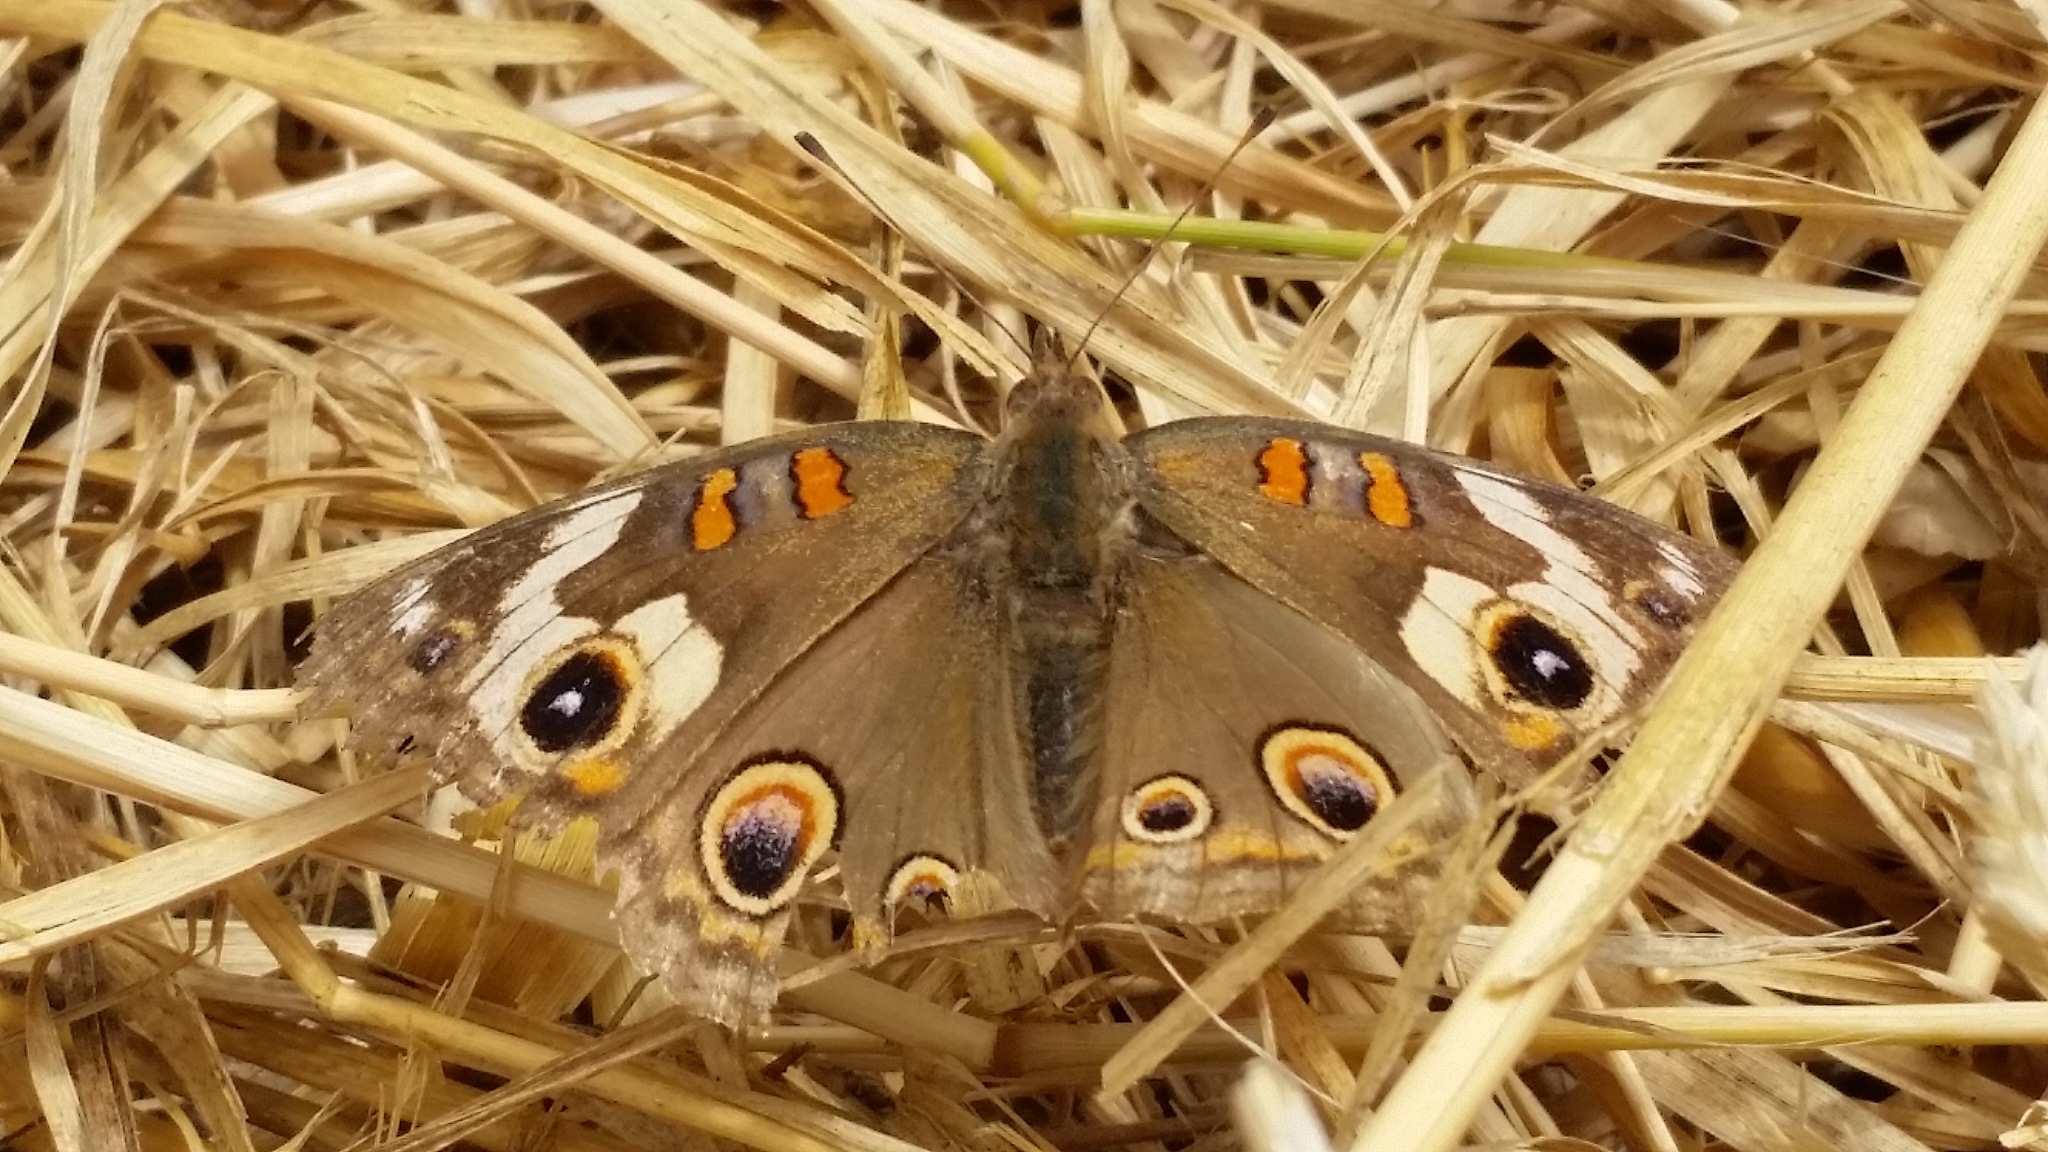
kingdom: Animalia
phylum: Arthropoda
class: Insecta
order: Lepidoptera
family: Nymphalidae
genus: Junonia
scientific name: Junonia grisea
